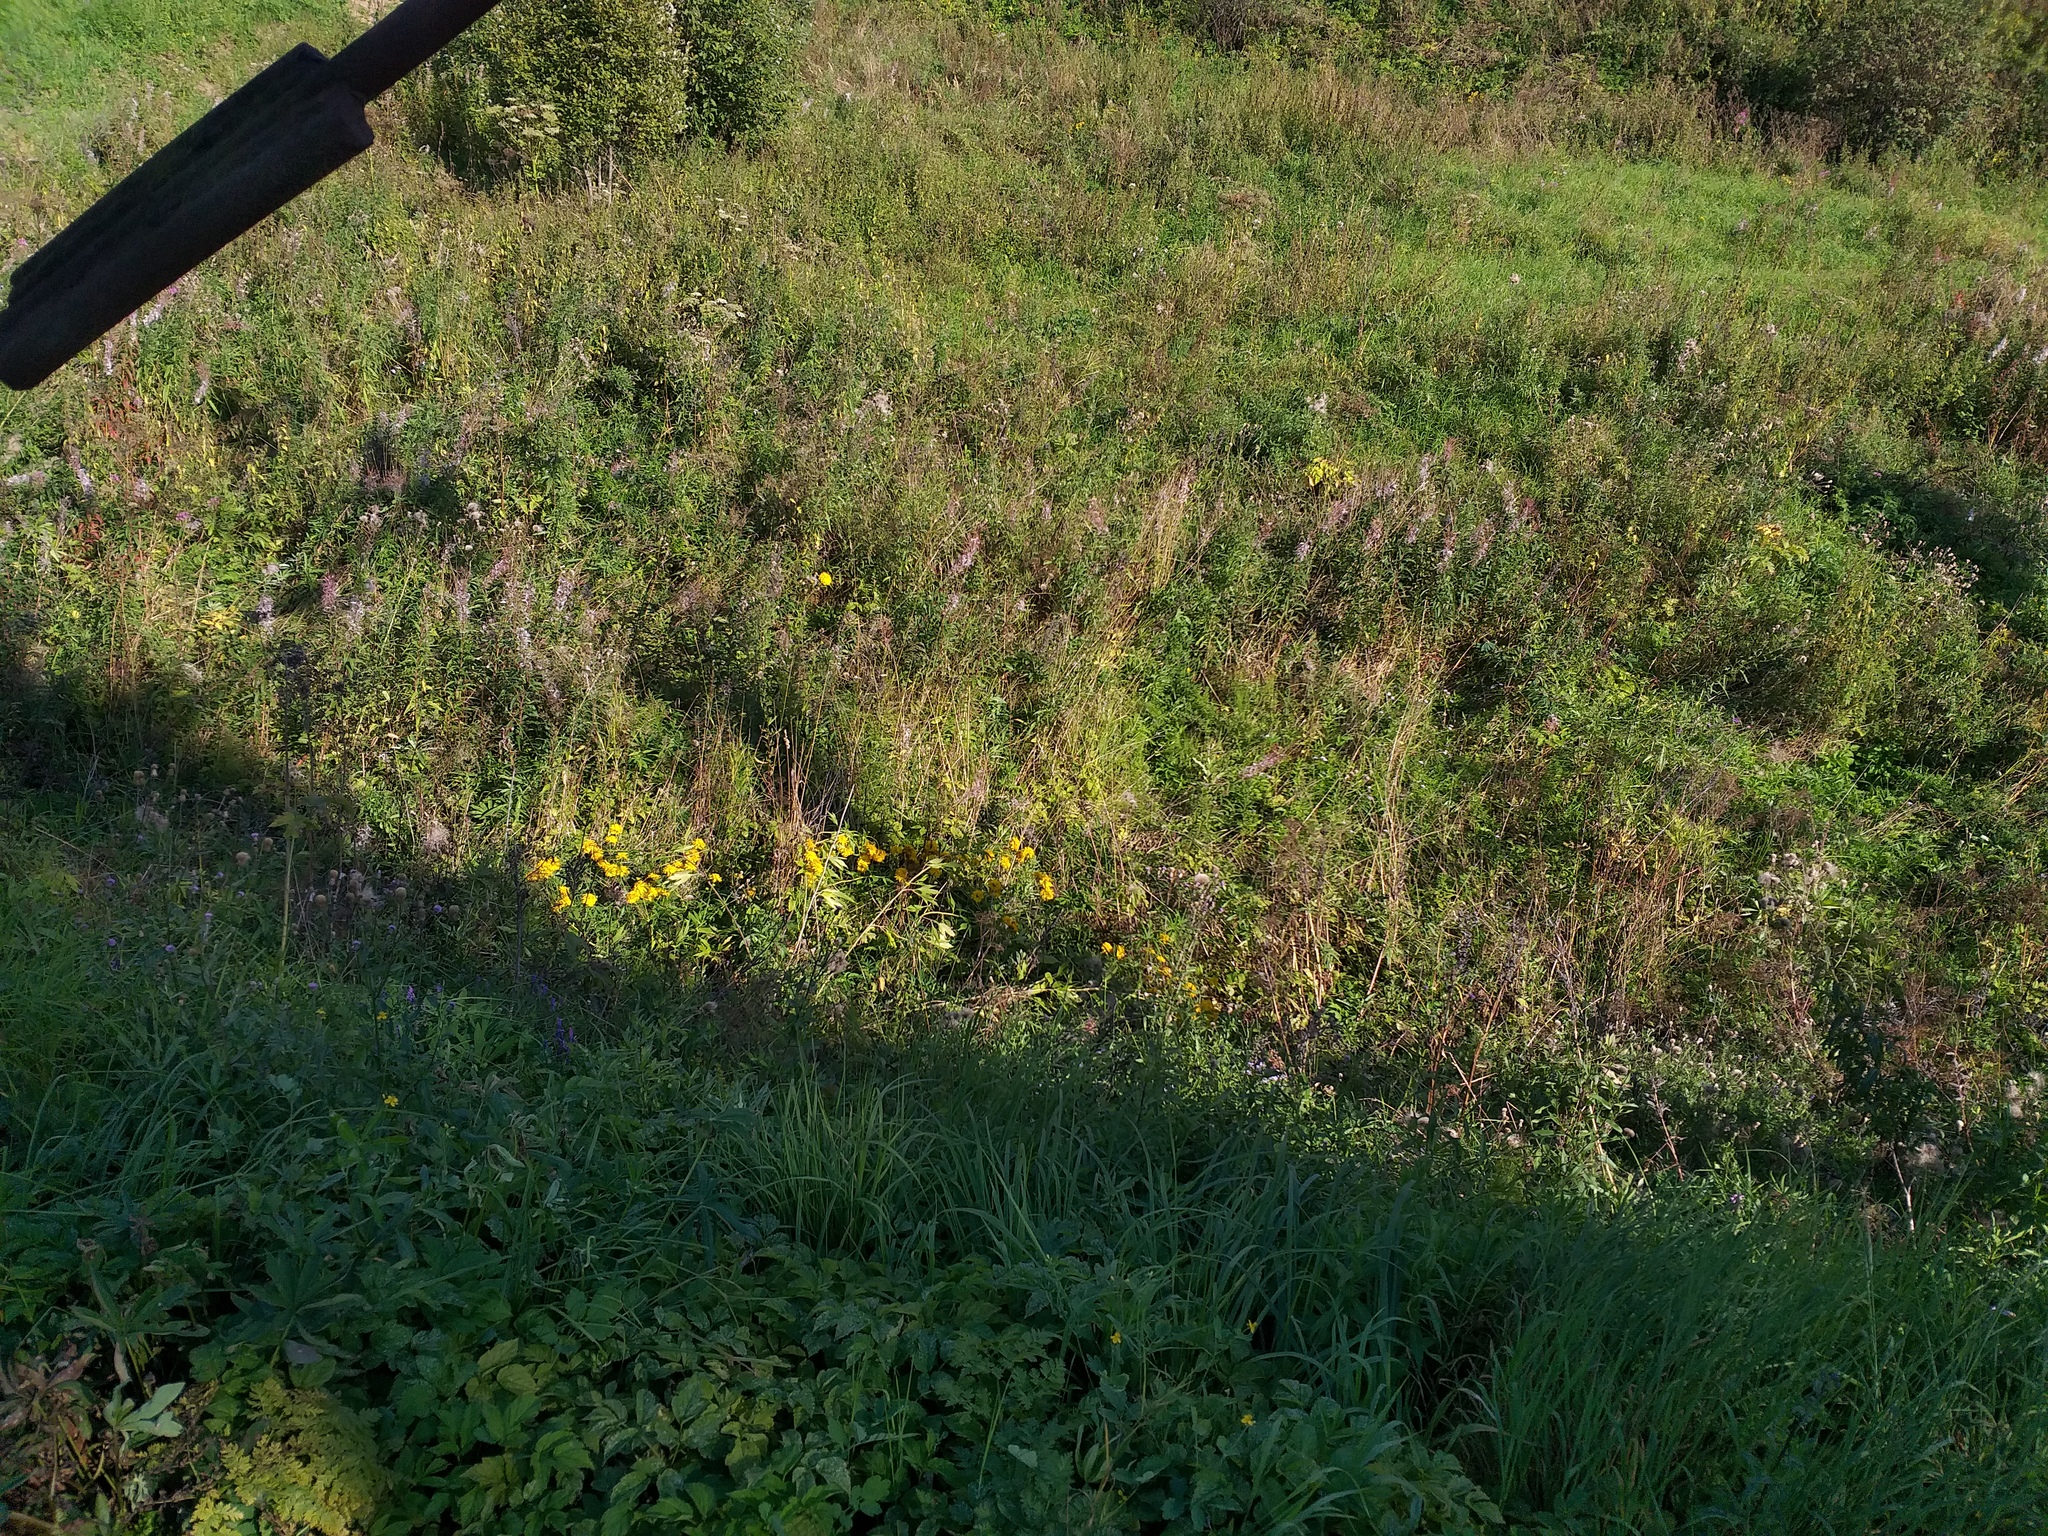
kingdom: Plantae
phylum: Tracheophyta
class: Magnoliopsida
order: Asterales
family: Asteraceae
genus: Rudbeckia
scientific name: Rudbeckia laciniata
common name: Coneflower
